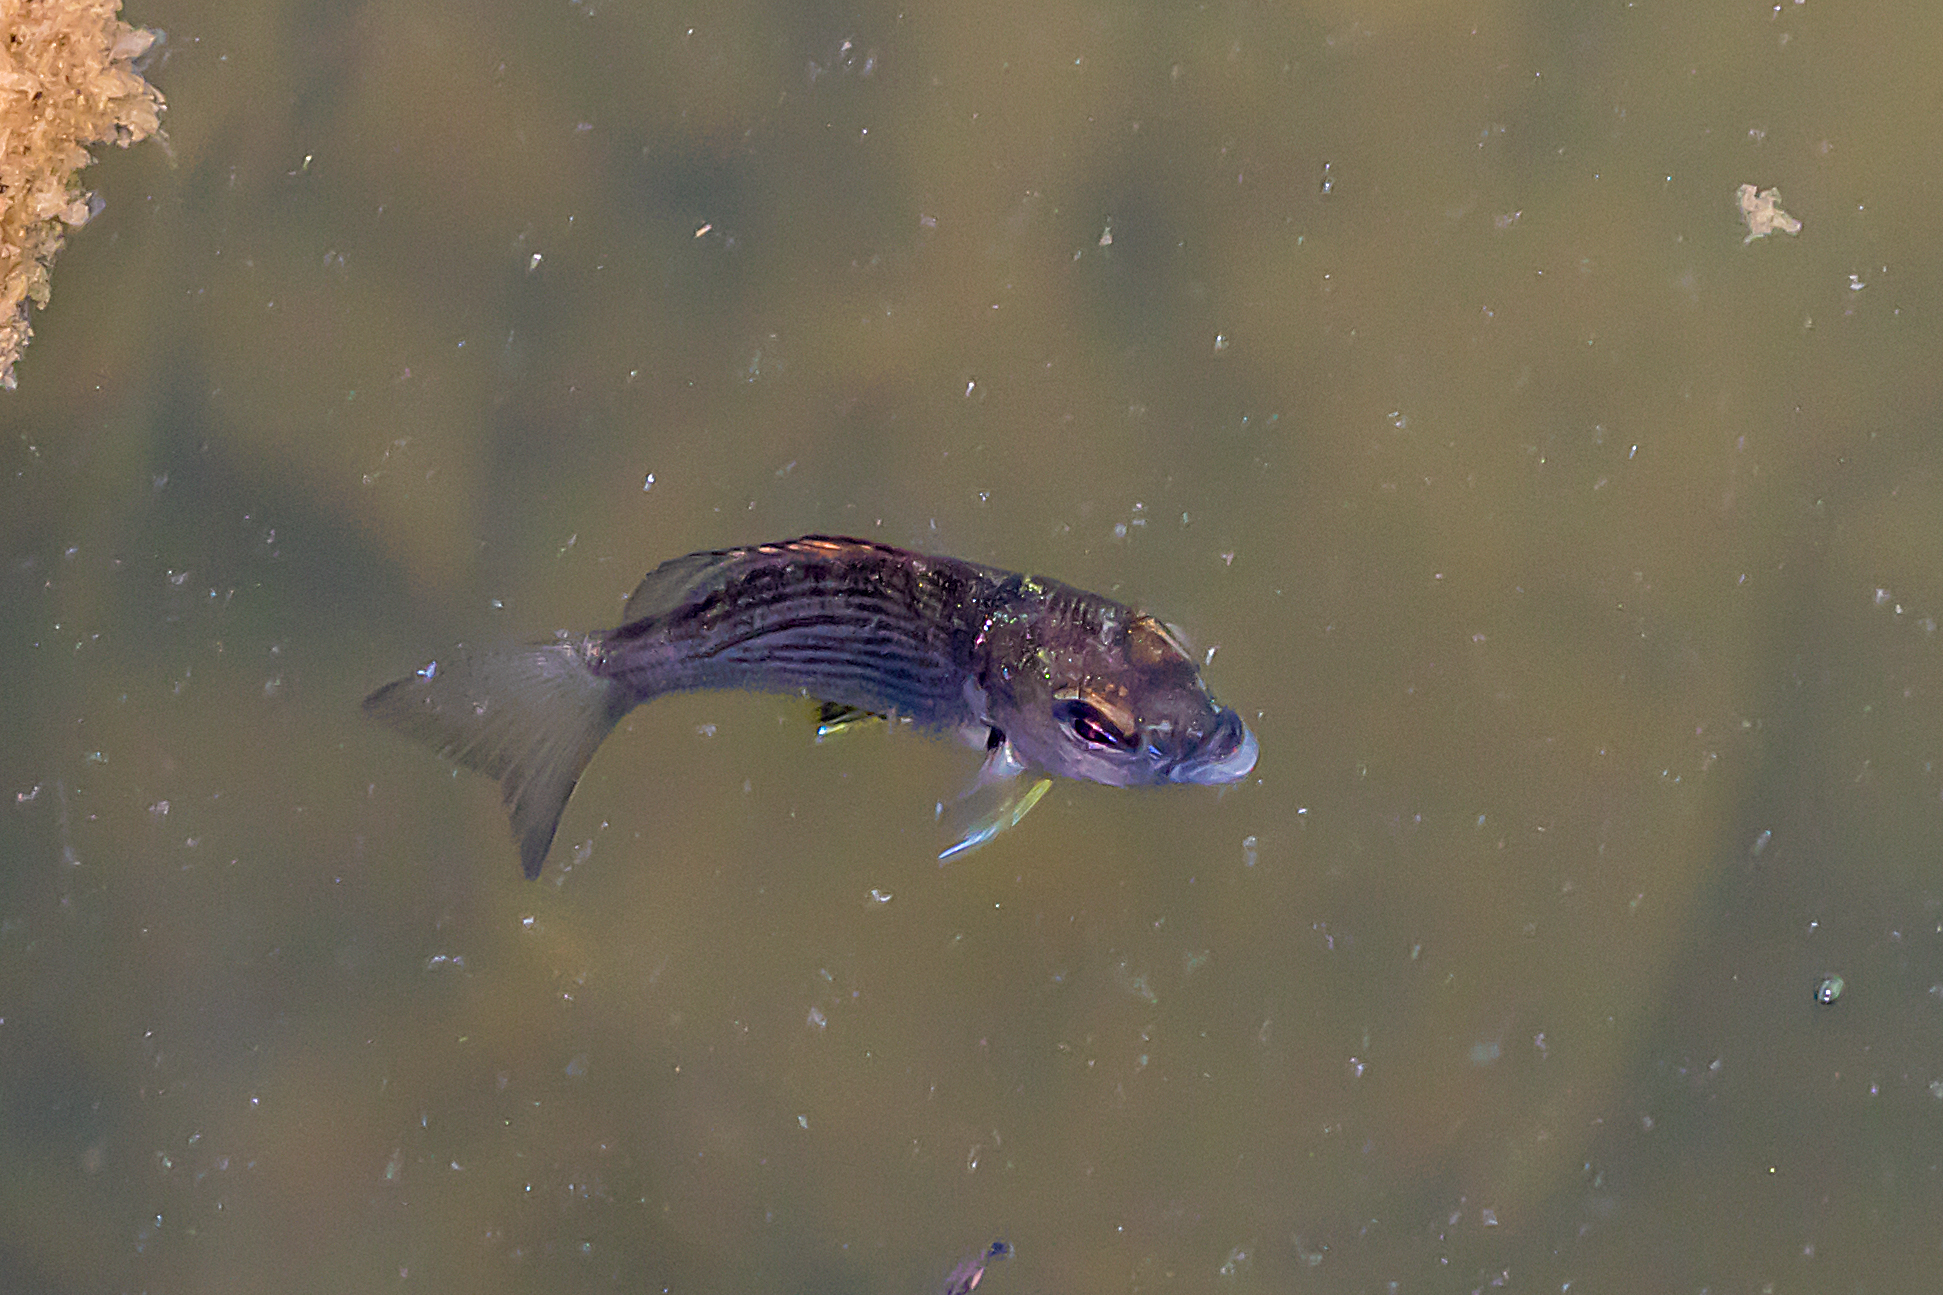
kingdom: Animalia
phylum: Chordata
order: Perciformes
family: Sparidae
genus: Acanthopagrus
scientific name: Acanthopagrus butcheri
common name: Black bream
